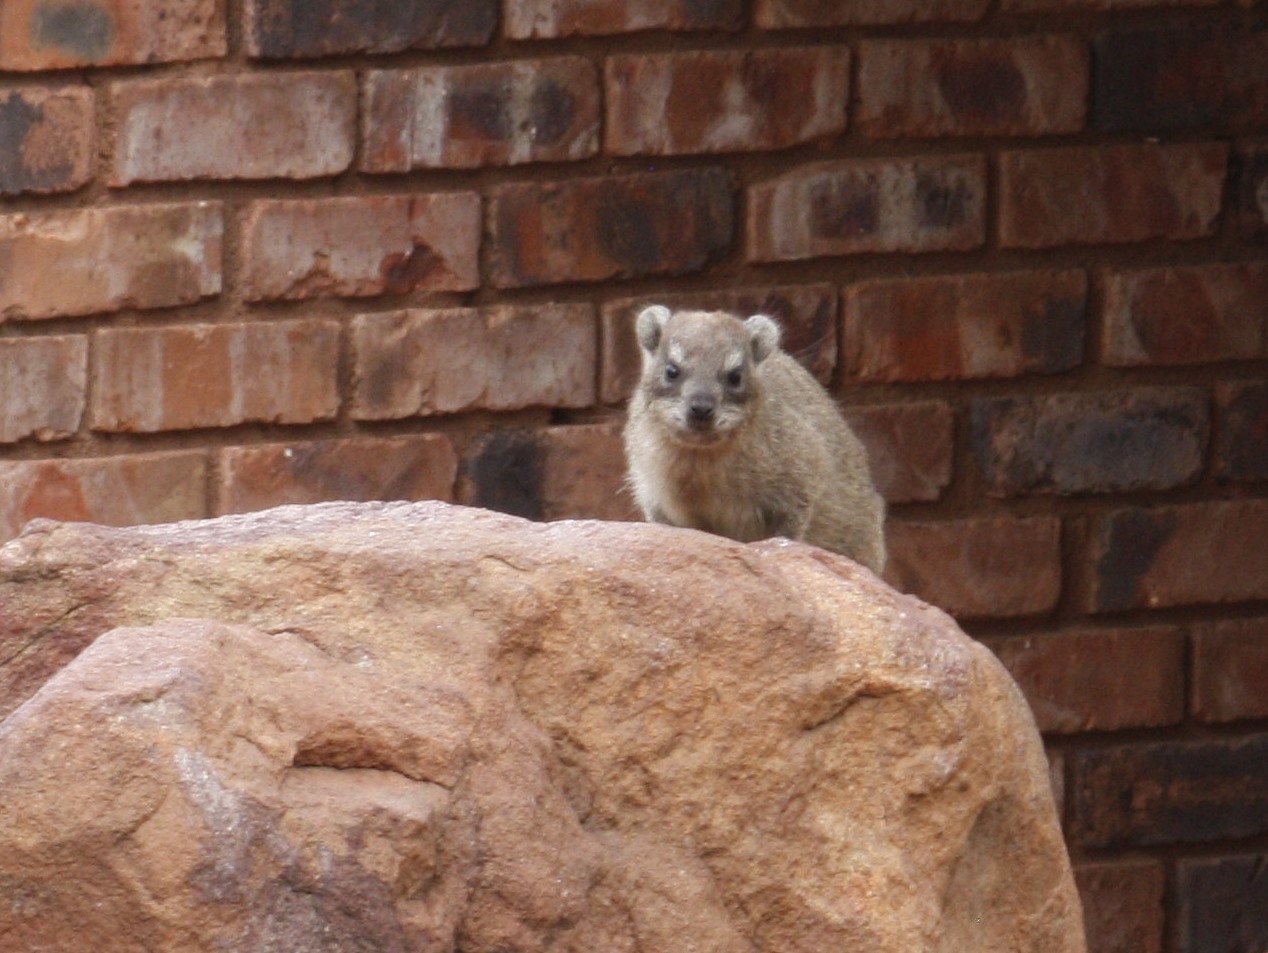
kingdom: Animalia
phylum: Chordata
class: Mammalia
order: Hyracoidea
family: Procaviidae
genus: Procavia
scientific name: Procavia capensis
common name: Rock hyrax
